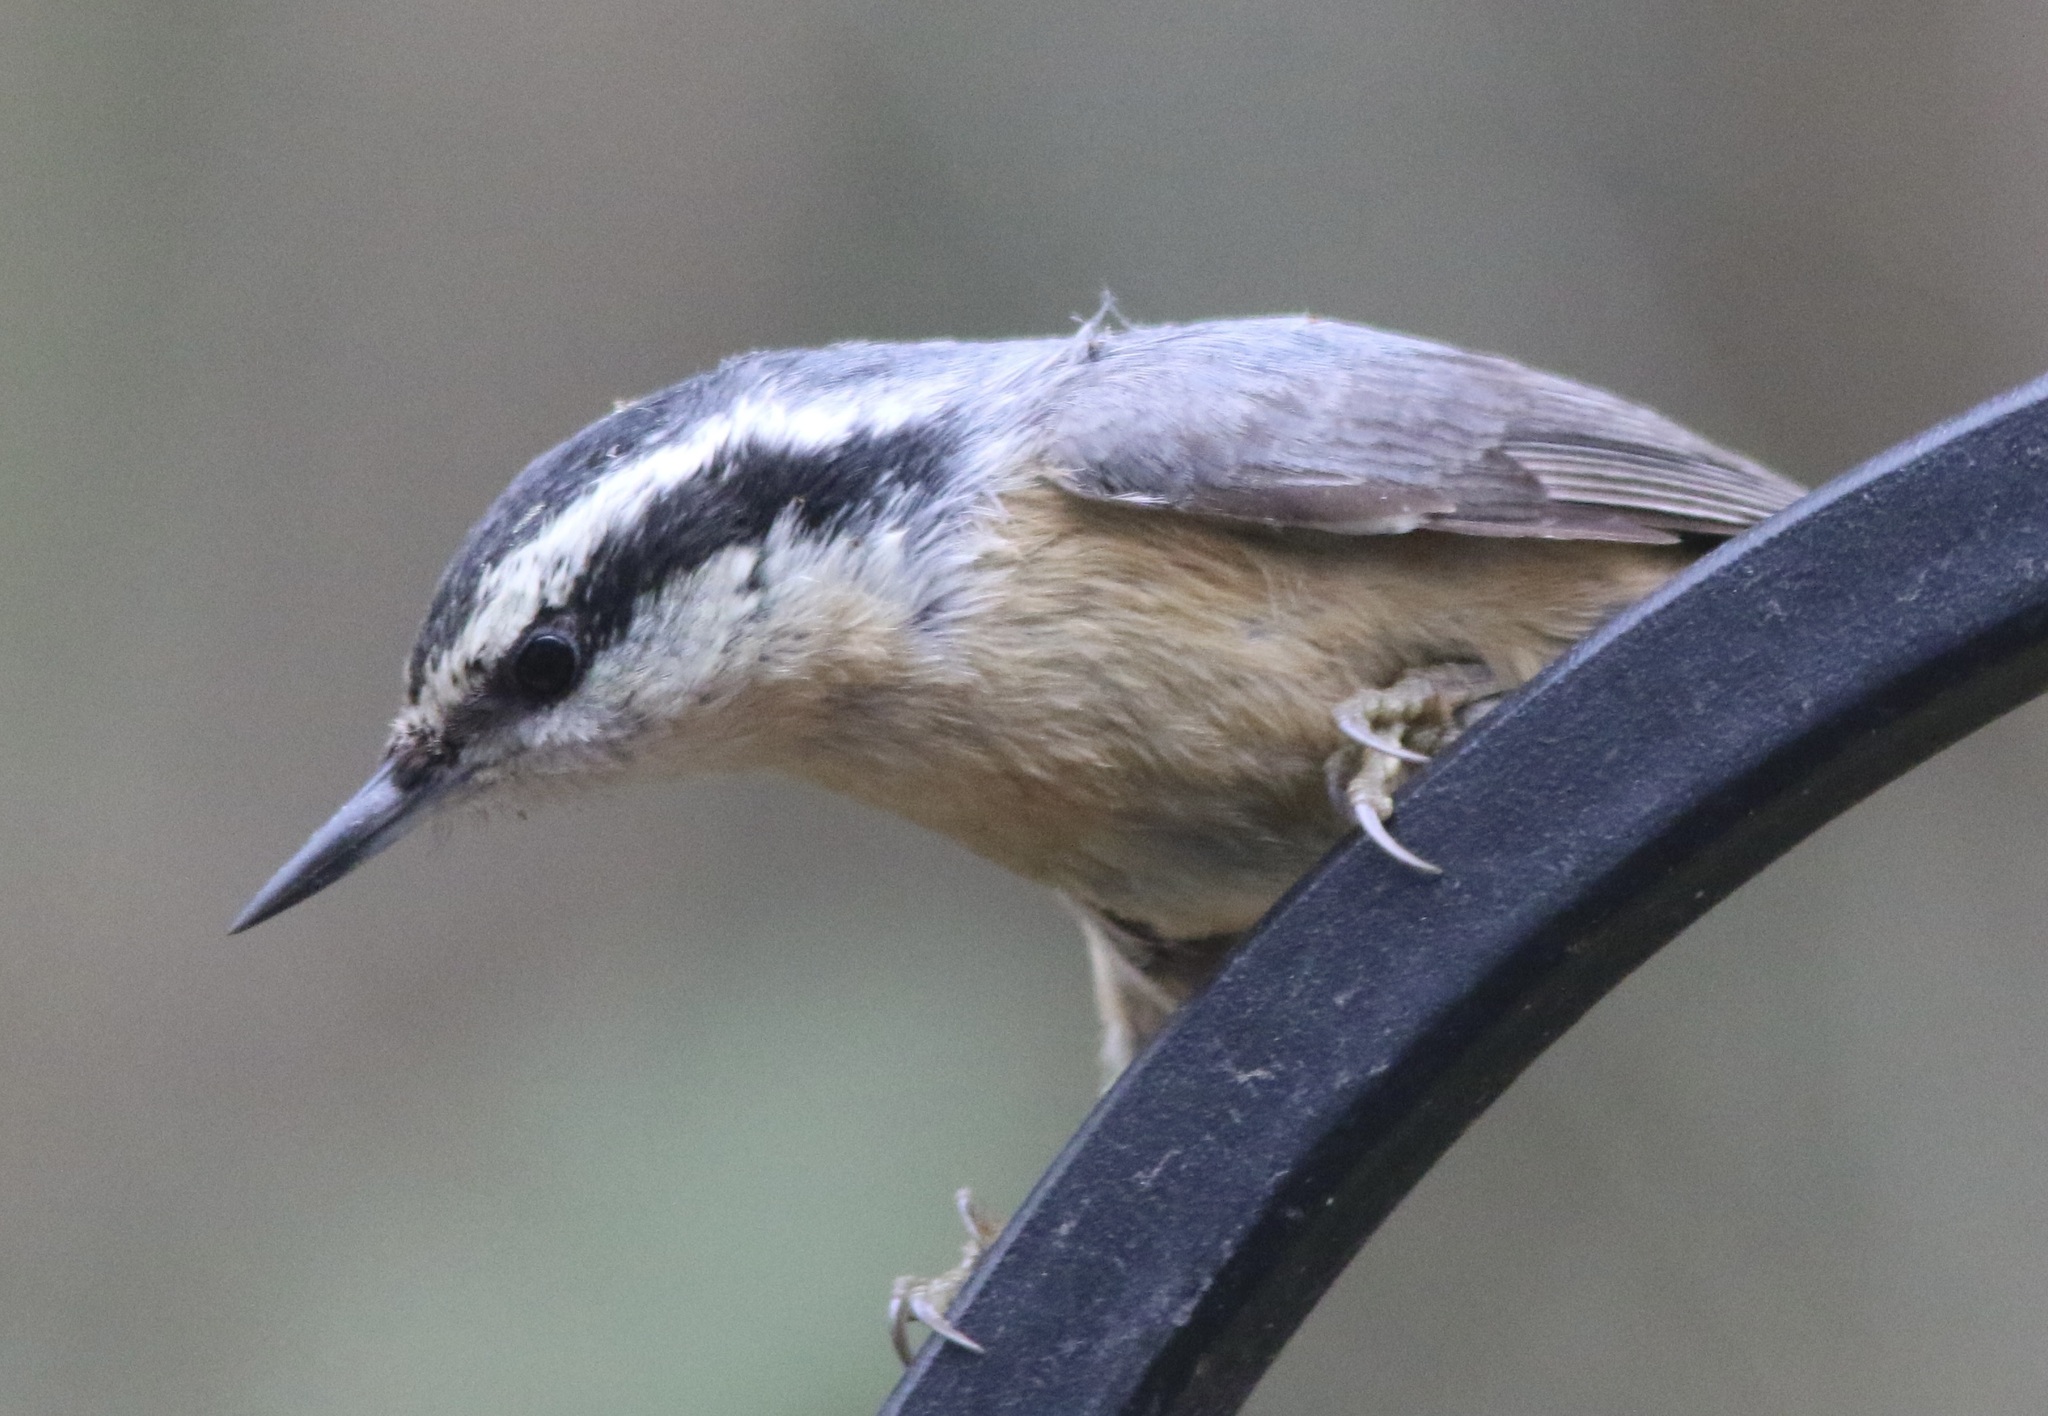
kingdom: Animalia
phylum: Chordata
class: Aves
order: Passeriformes
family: Sittidae
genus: Sitta
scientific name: Sitta canadensis
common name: Red-breasted nuthatch
